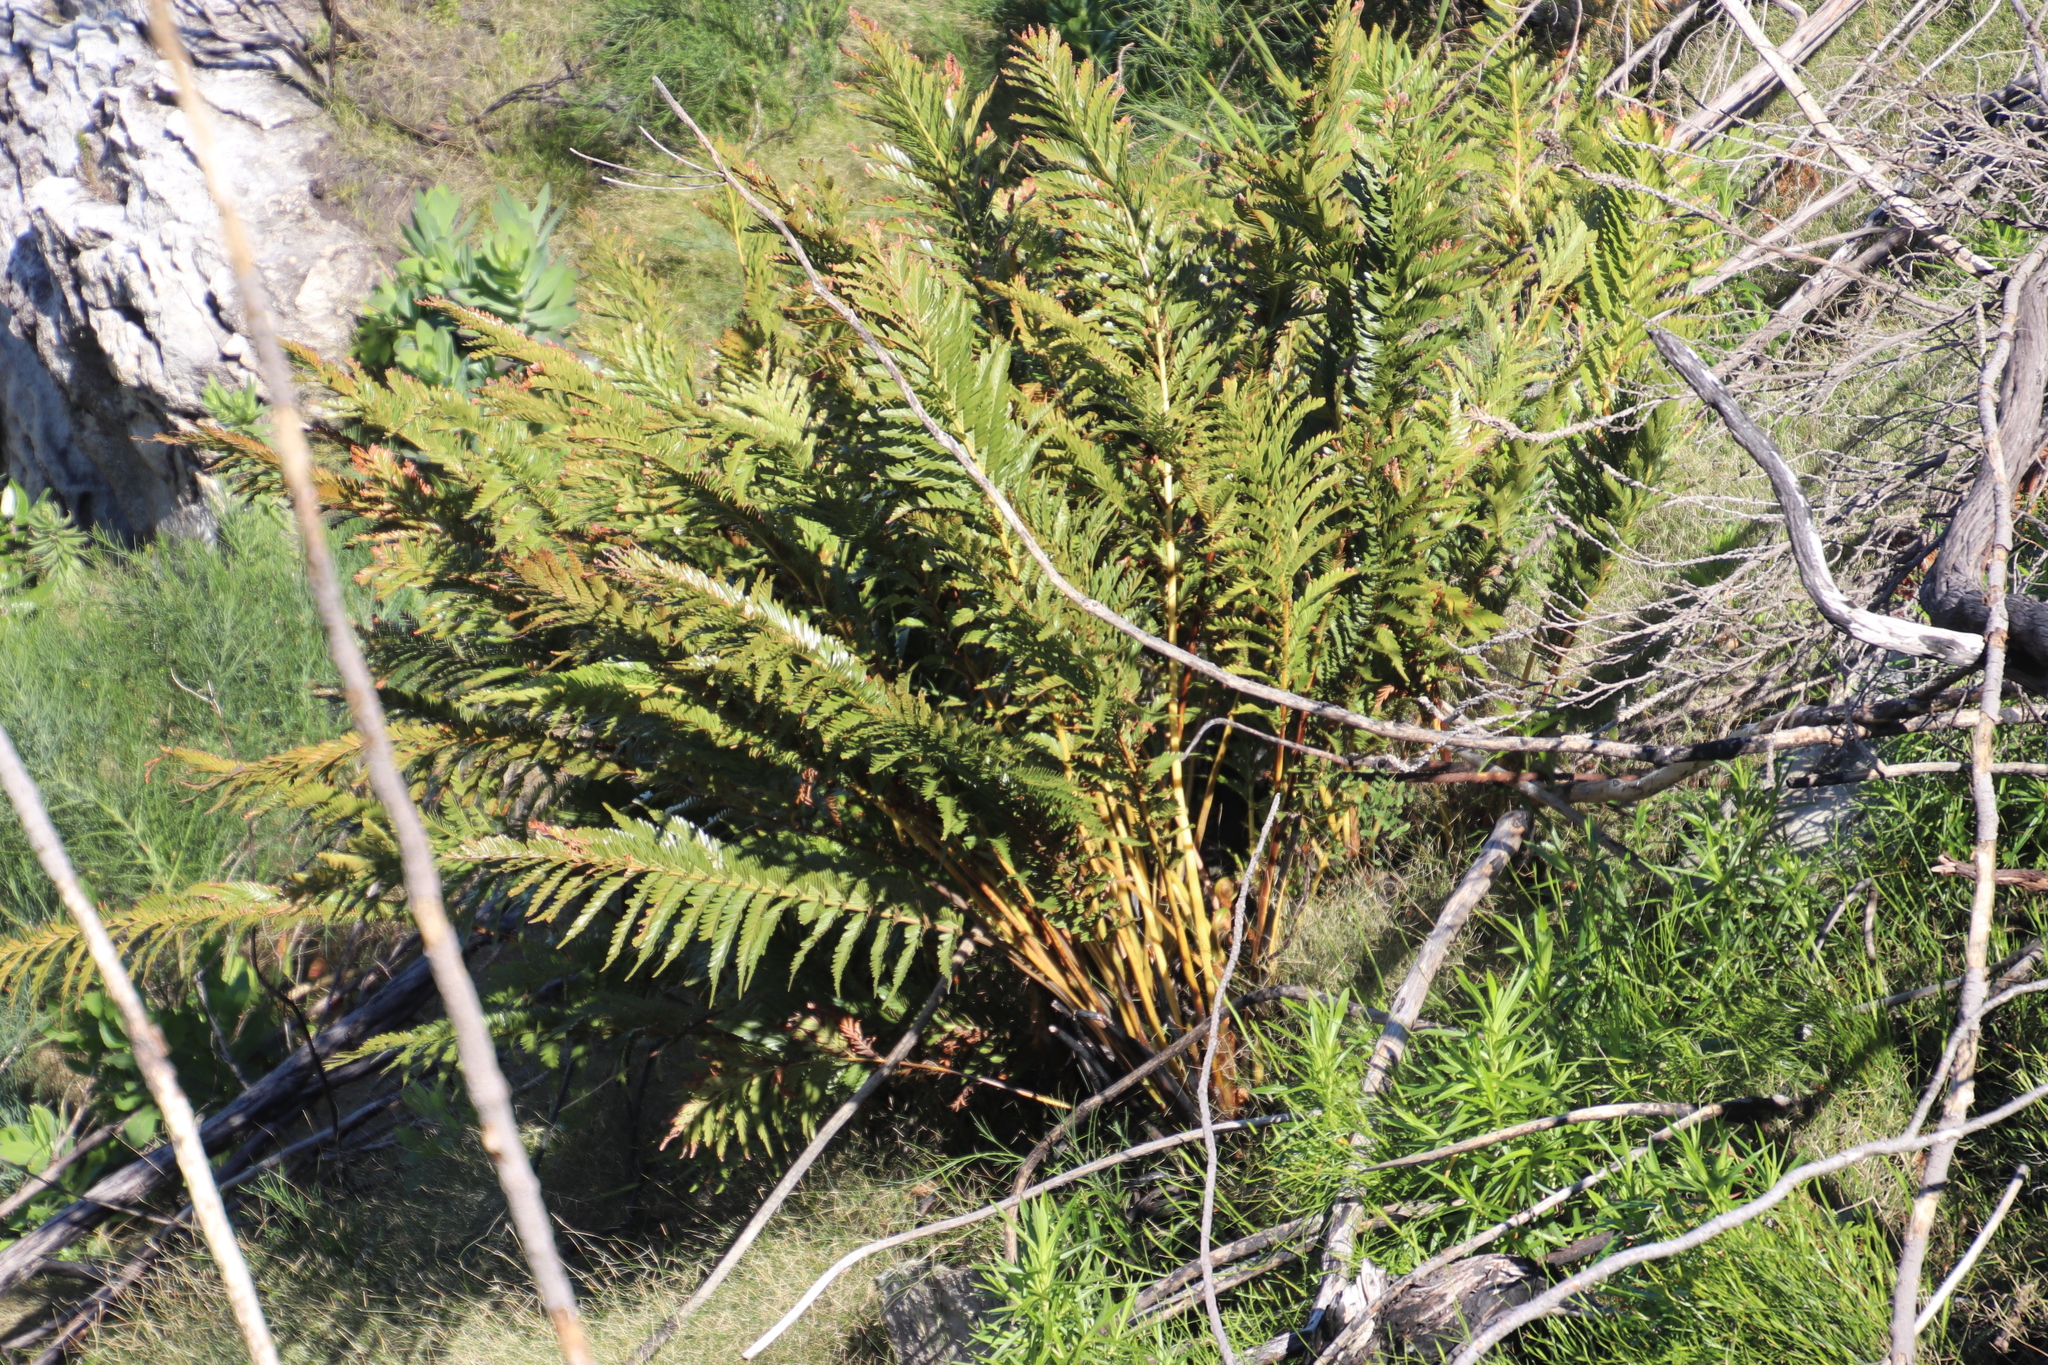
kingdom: Plantae
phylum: Tracheophyta
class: Polypodiopsida
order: Osmundales
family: Osmundaceae
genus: Todea
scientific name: Todea barbara
